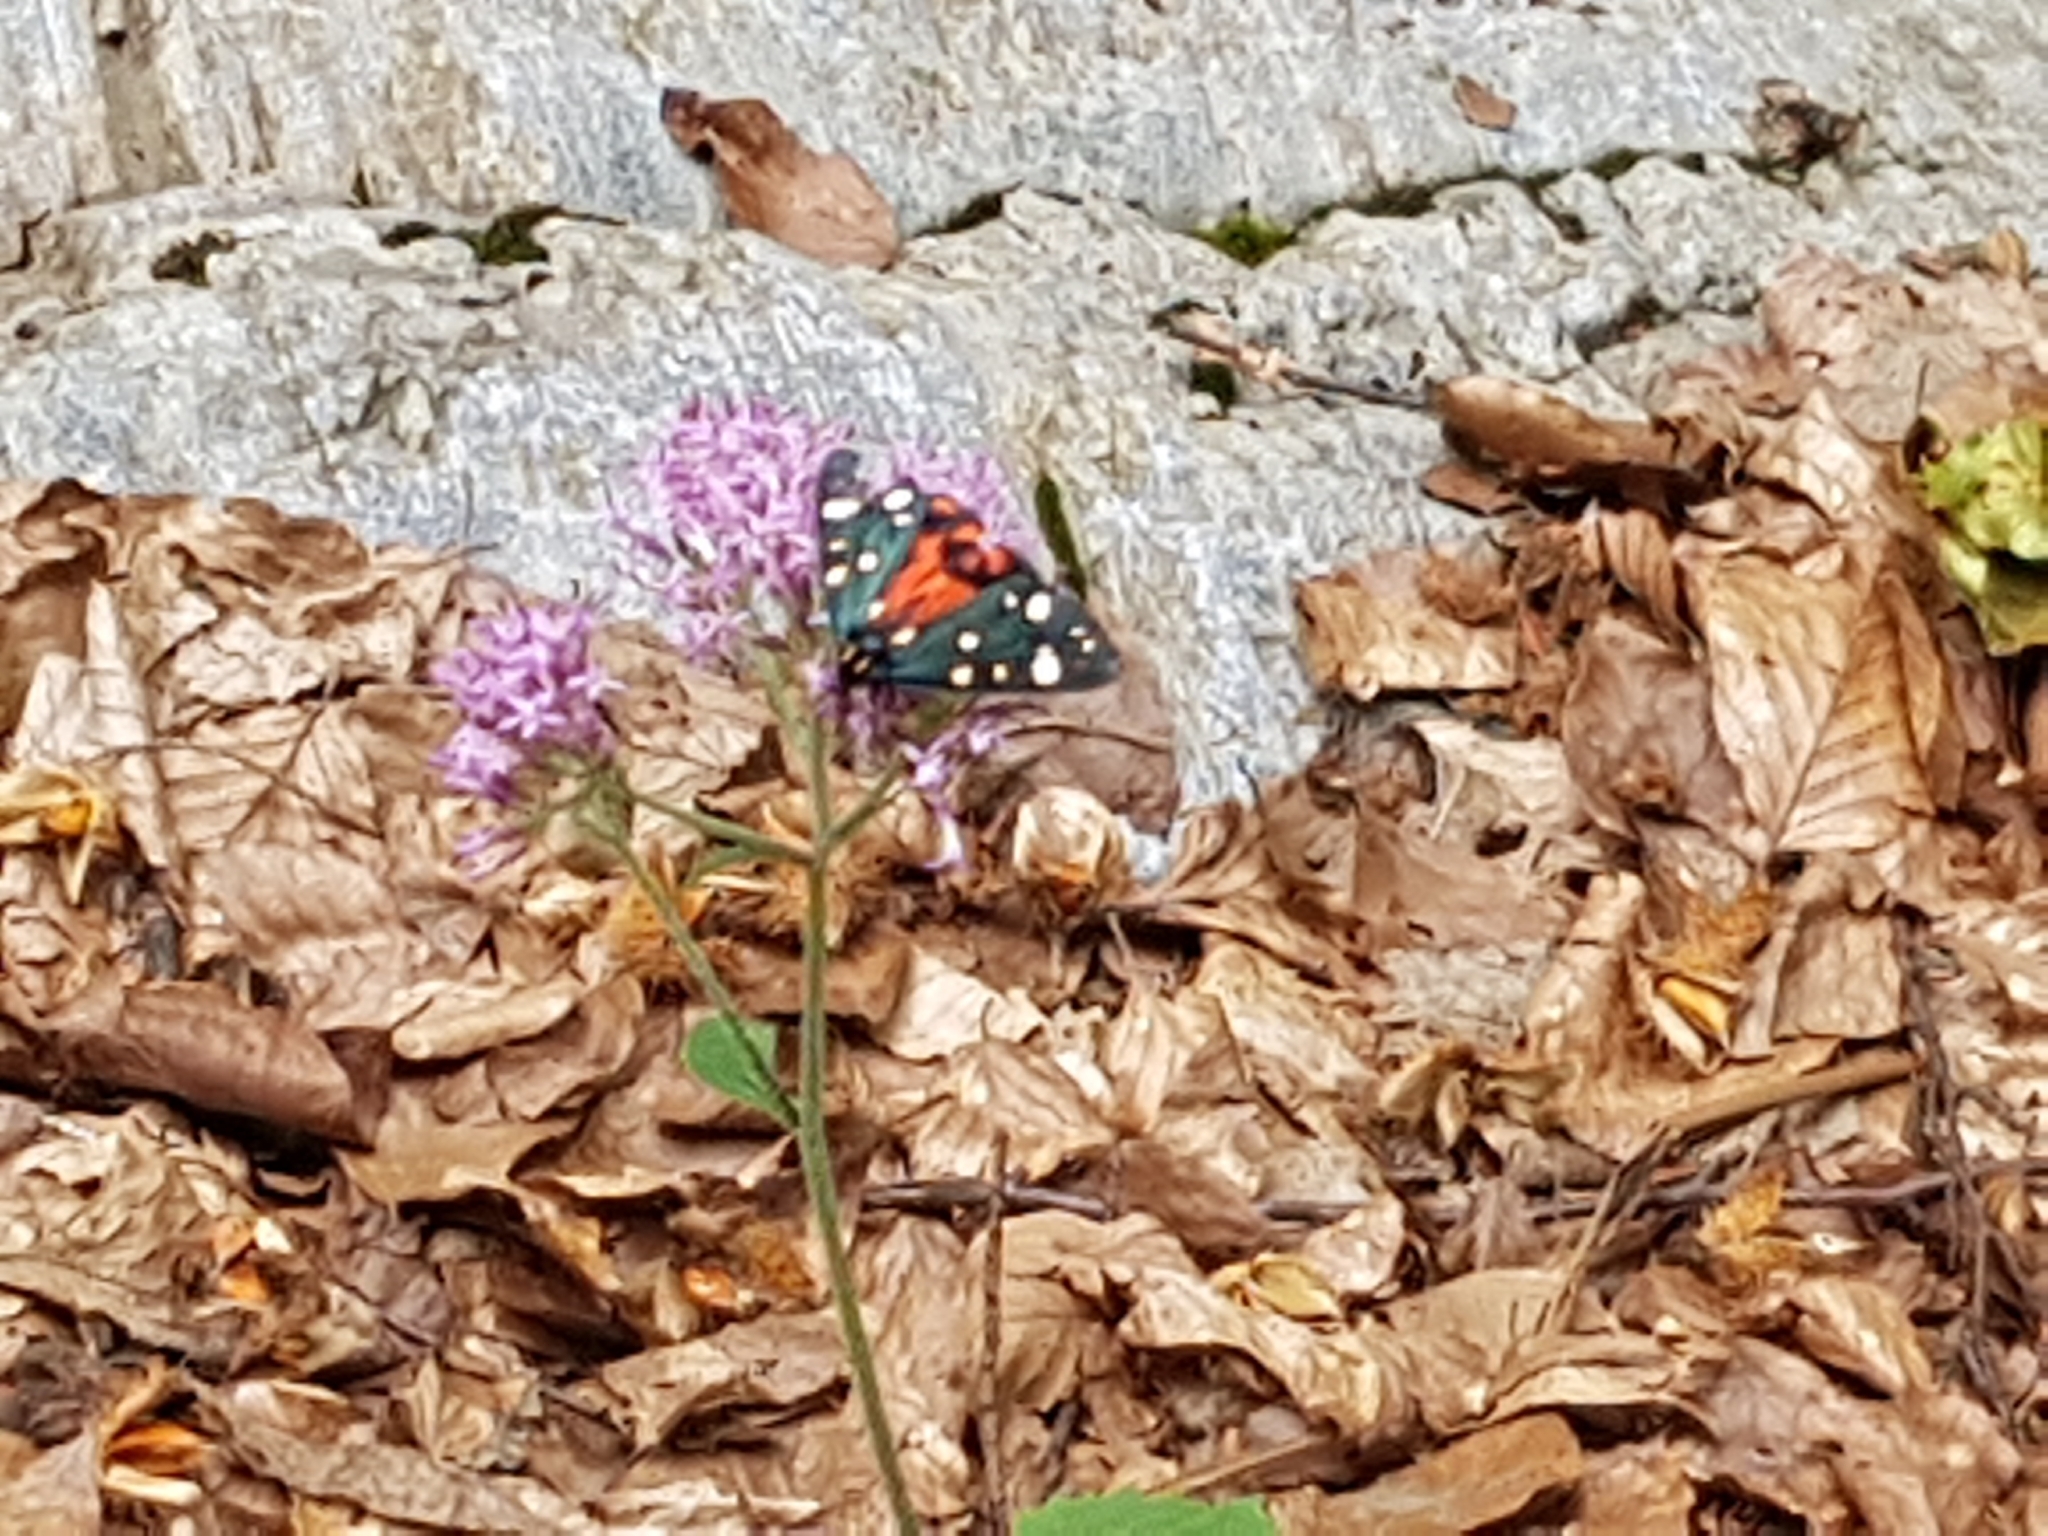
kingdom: Animalia
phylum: Arthropoda
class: Insecta
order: Lepidoptera
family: Erebidae
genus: Callimorpha
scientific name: Callimorpha dominula
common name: Scarlet tiger
